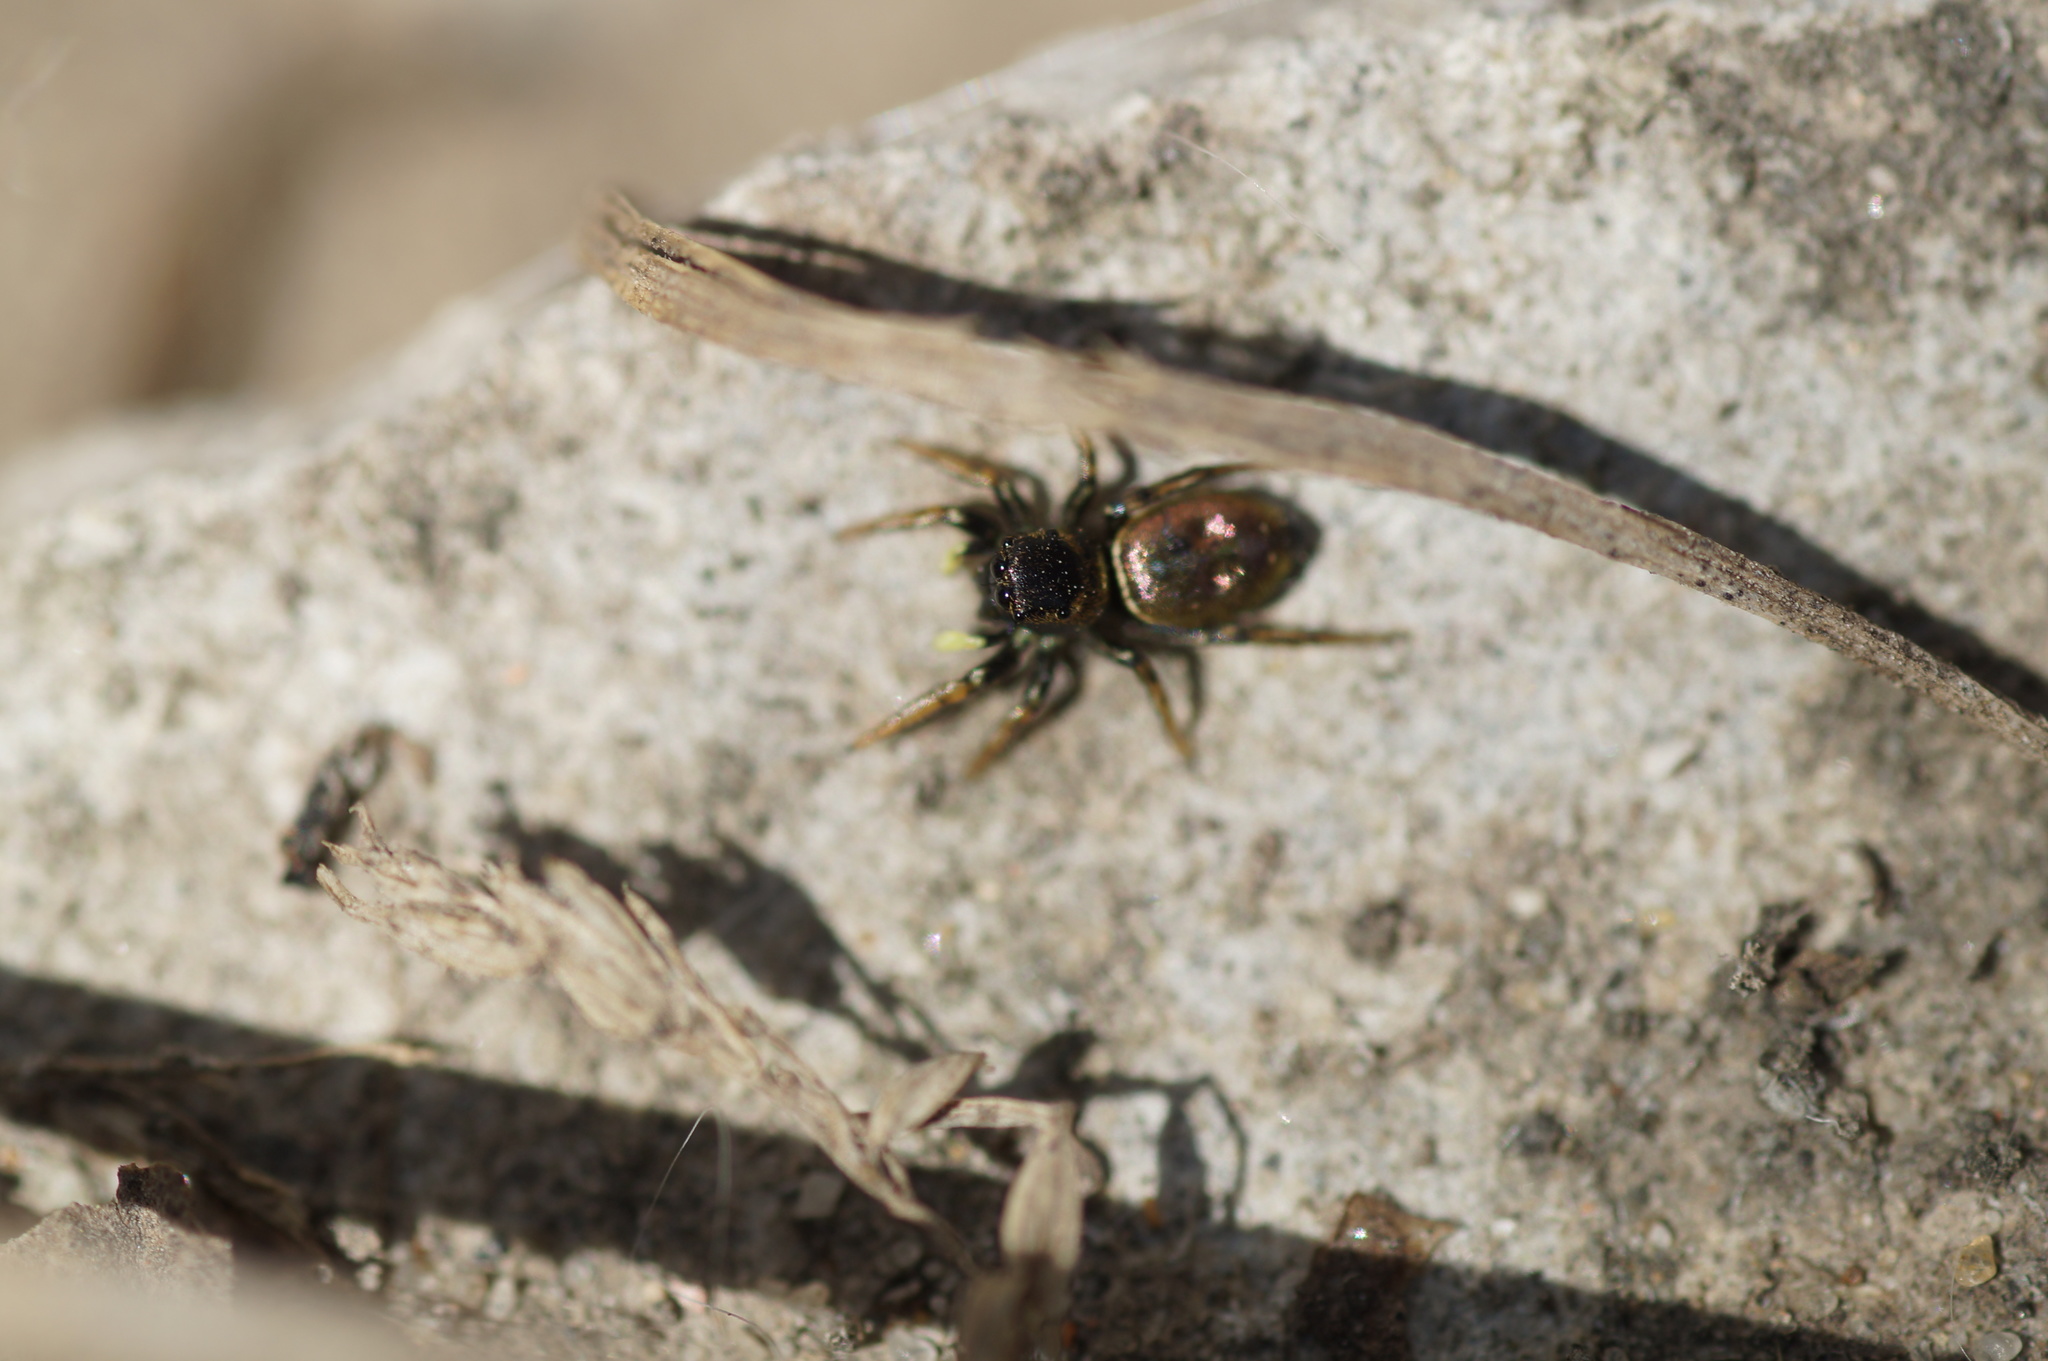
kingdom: Animalia
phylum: Arthropoda
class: Arachnida
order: Araneae
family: Salticidae
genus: Heliophanus
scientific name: Heliophanus auratus
